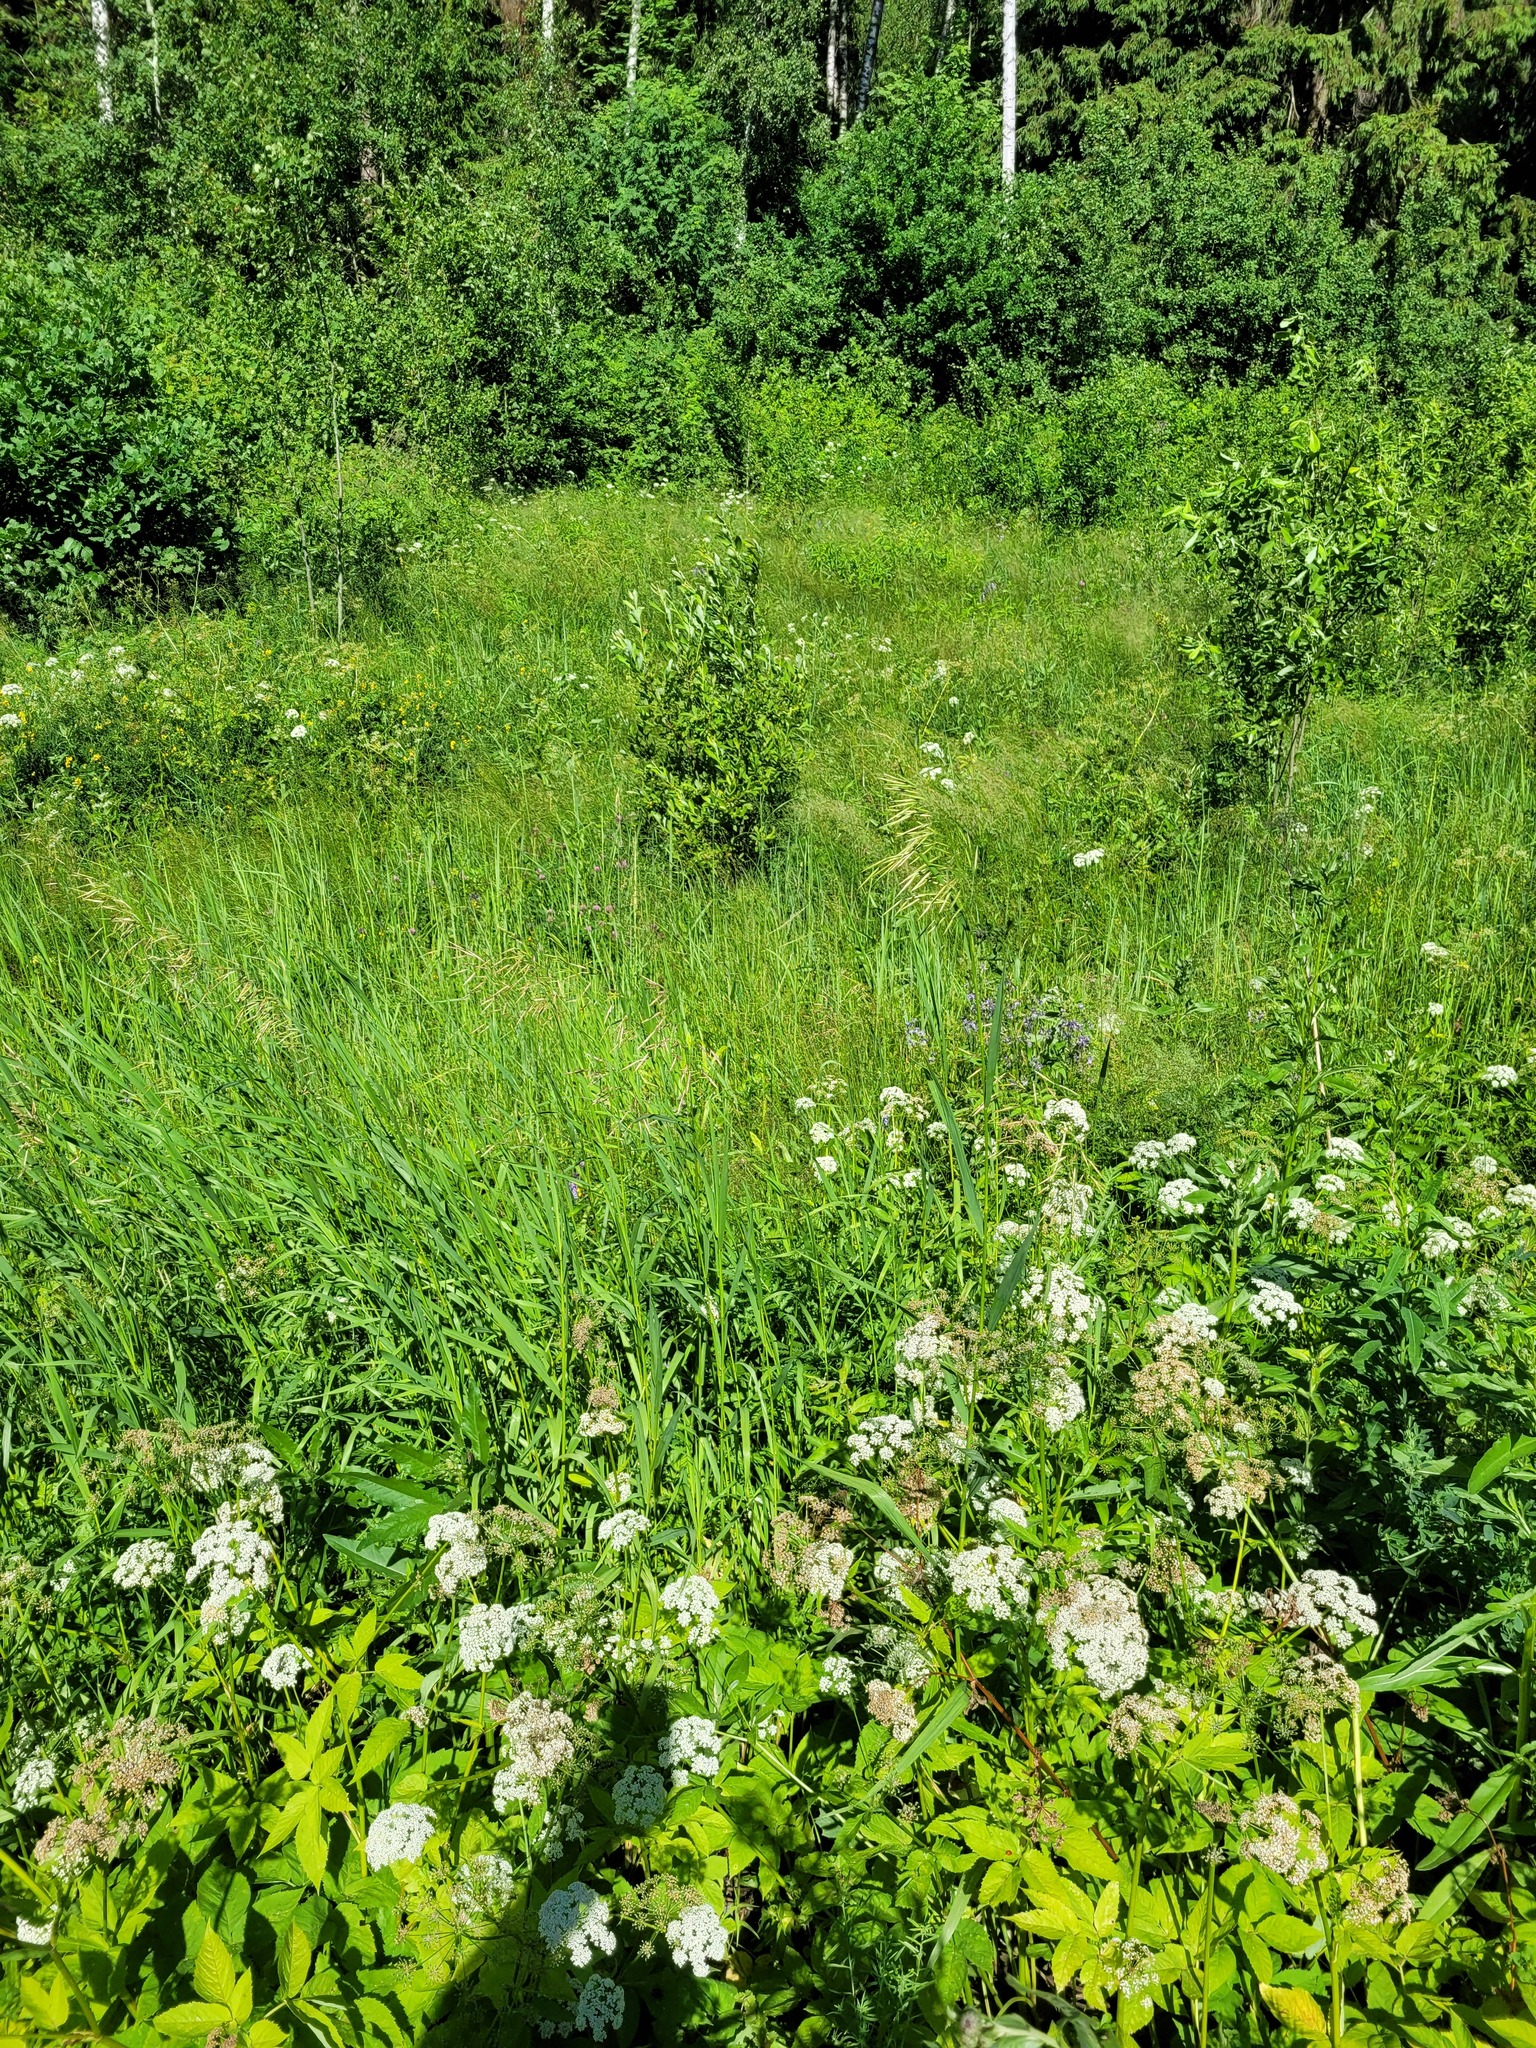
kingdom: Plantae
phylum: Tracheophyta
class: Liliopsida
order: Poales
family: Poaceae
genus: Bromus
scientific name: Bromus inermis
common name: Smooth brome
